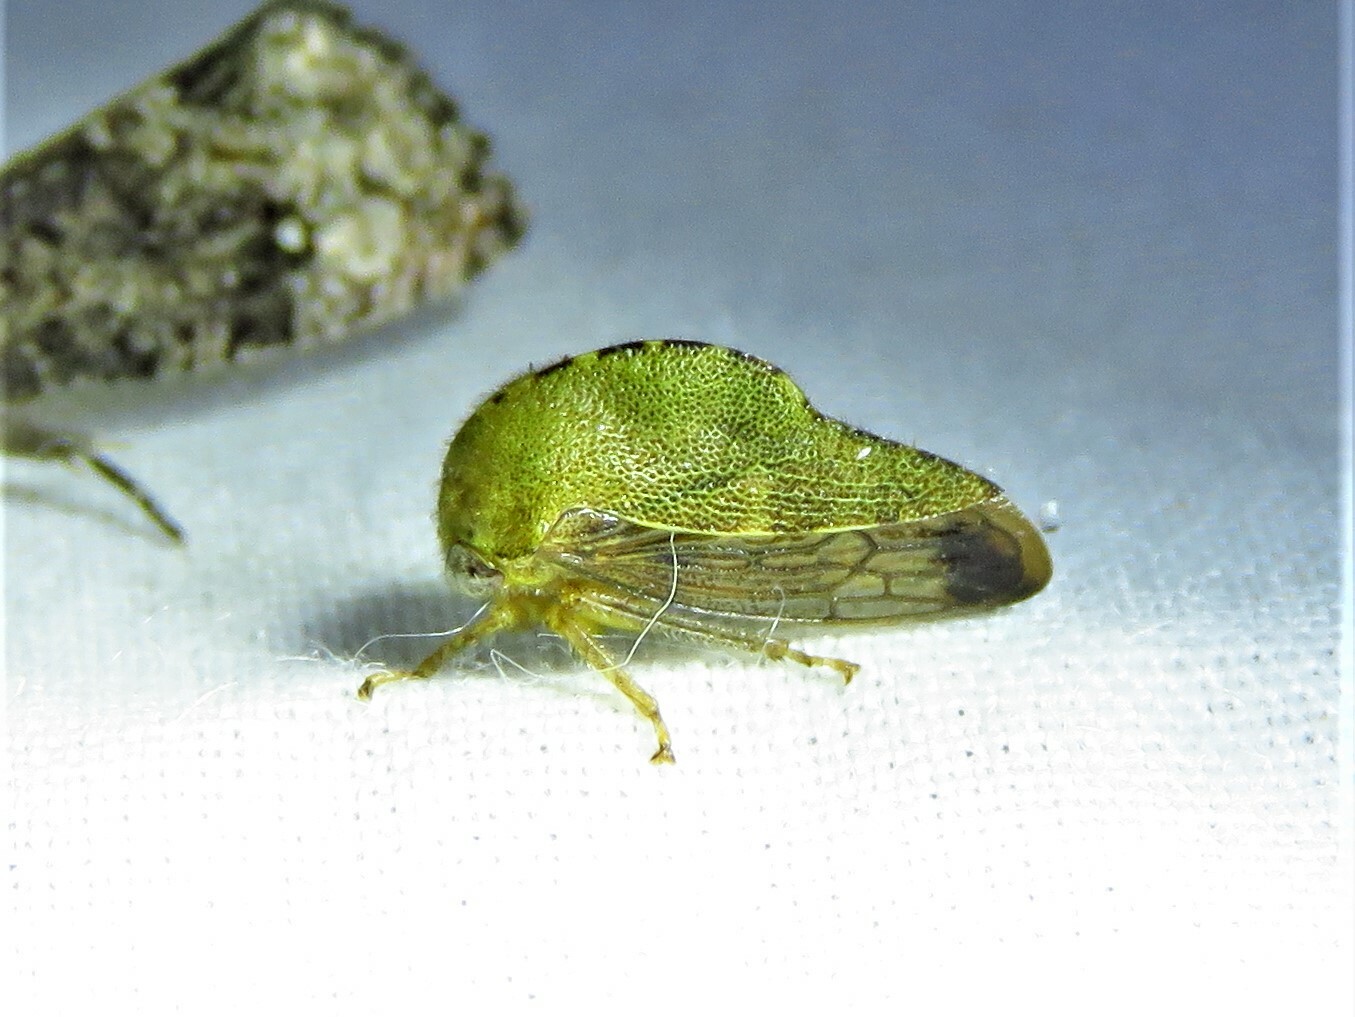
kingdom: Animalia
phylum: Arthropoda
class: Insecta
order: Hemiptera
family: Membracidae
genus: Telamona
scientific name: Telamona reclivata
